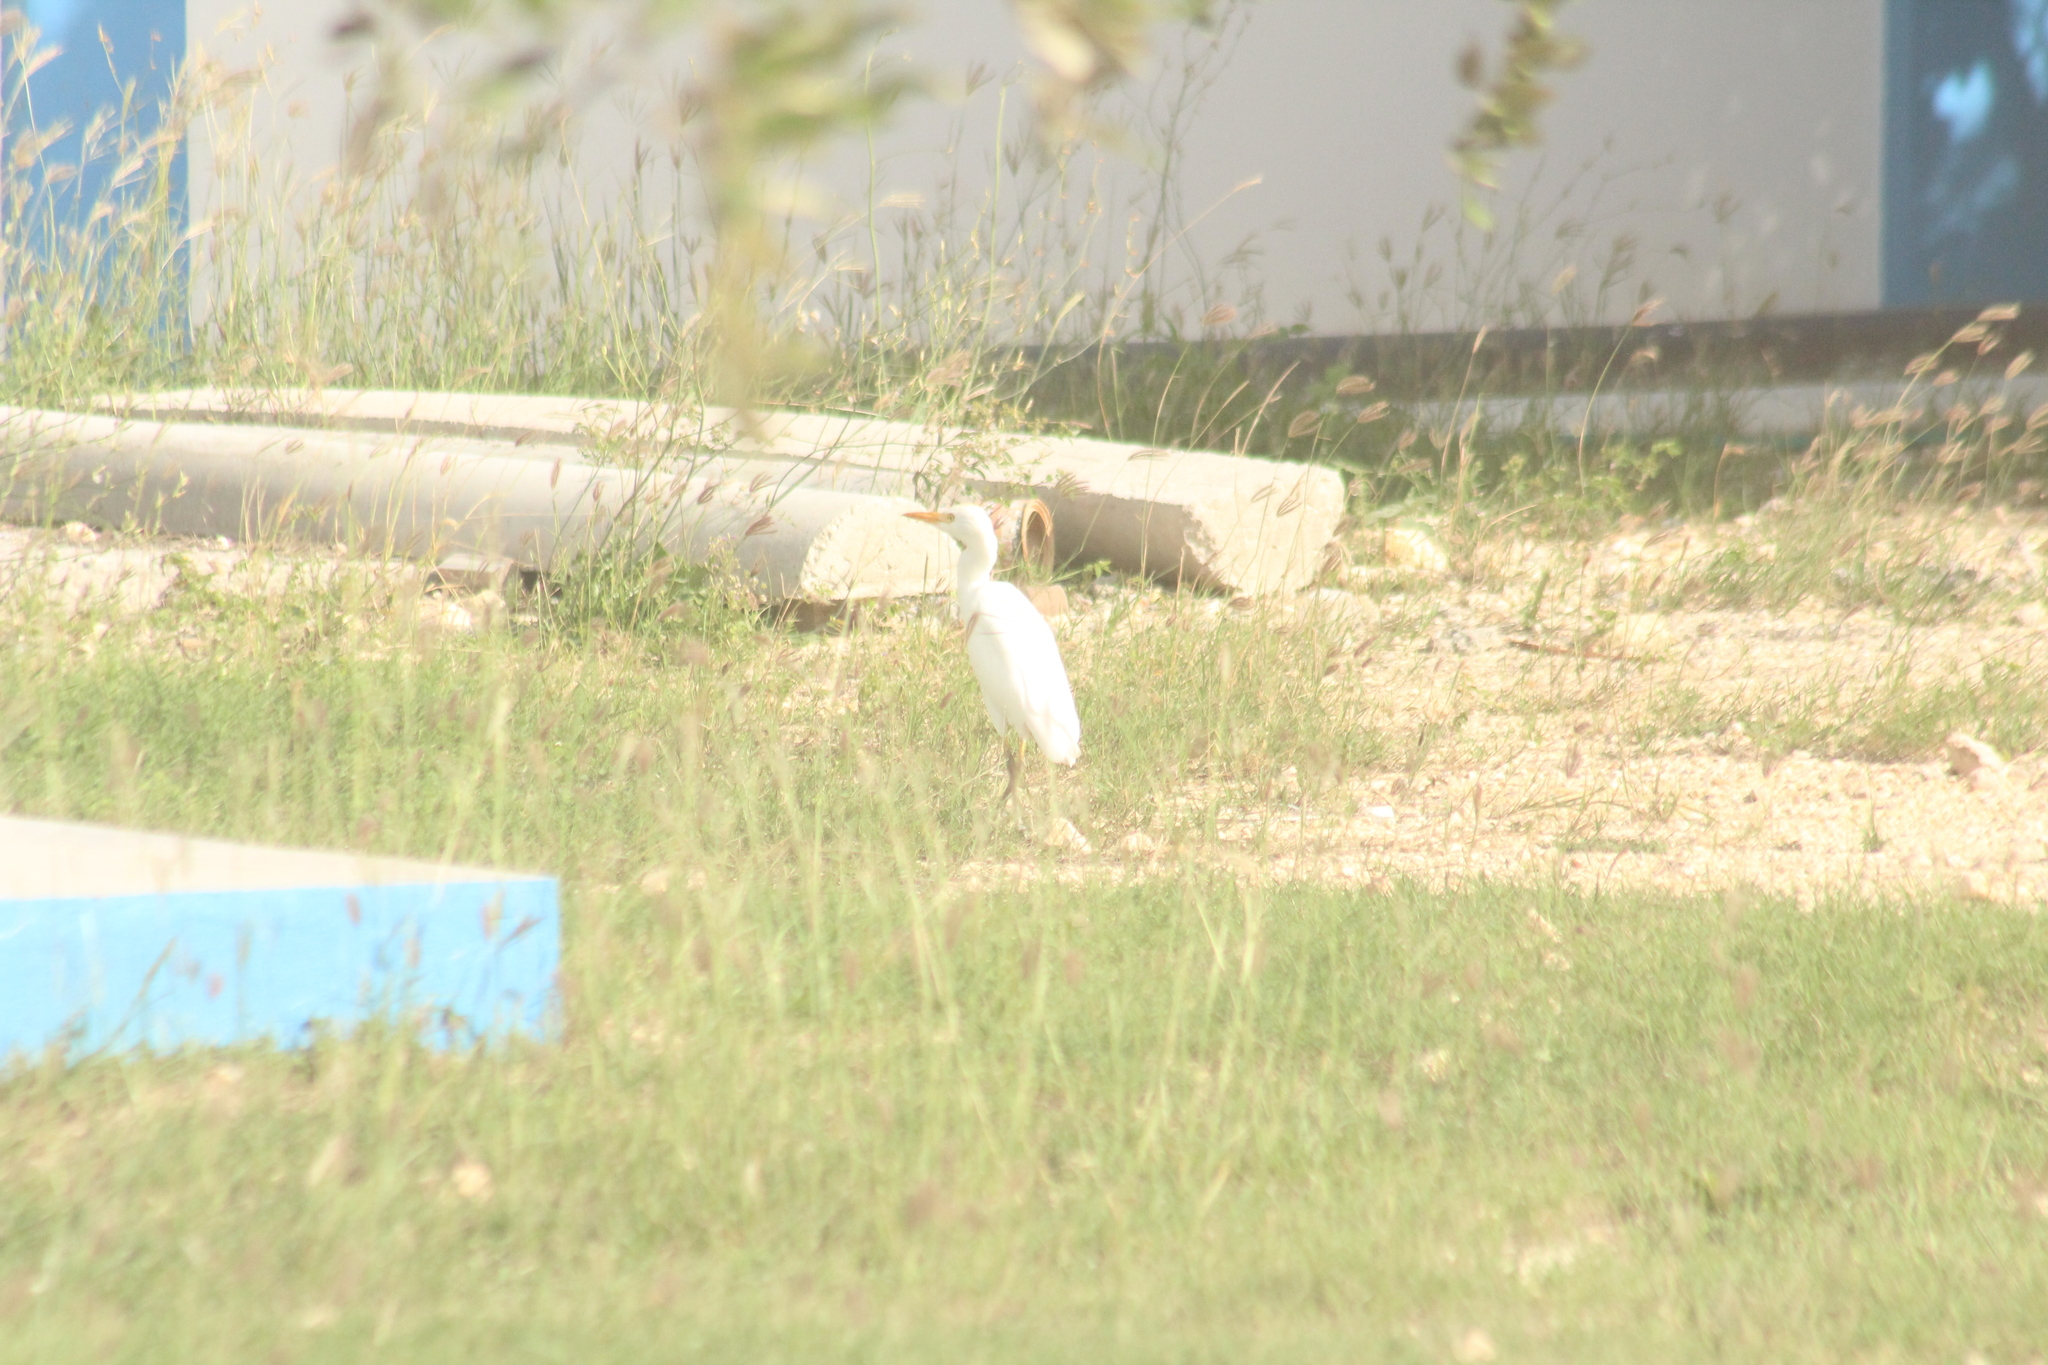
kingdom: Animalia
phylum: Chordata
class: Aves
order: Pelecaniformes
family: Ardeidae
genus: Bubulcus
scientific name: Bubulcus ibis
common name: Cattle egret
